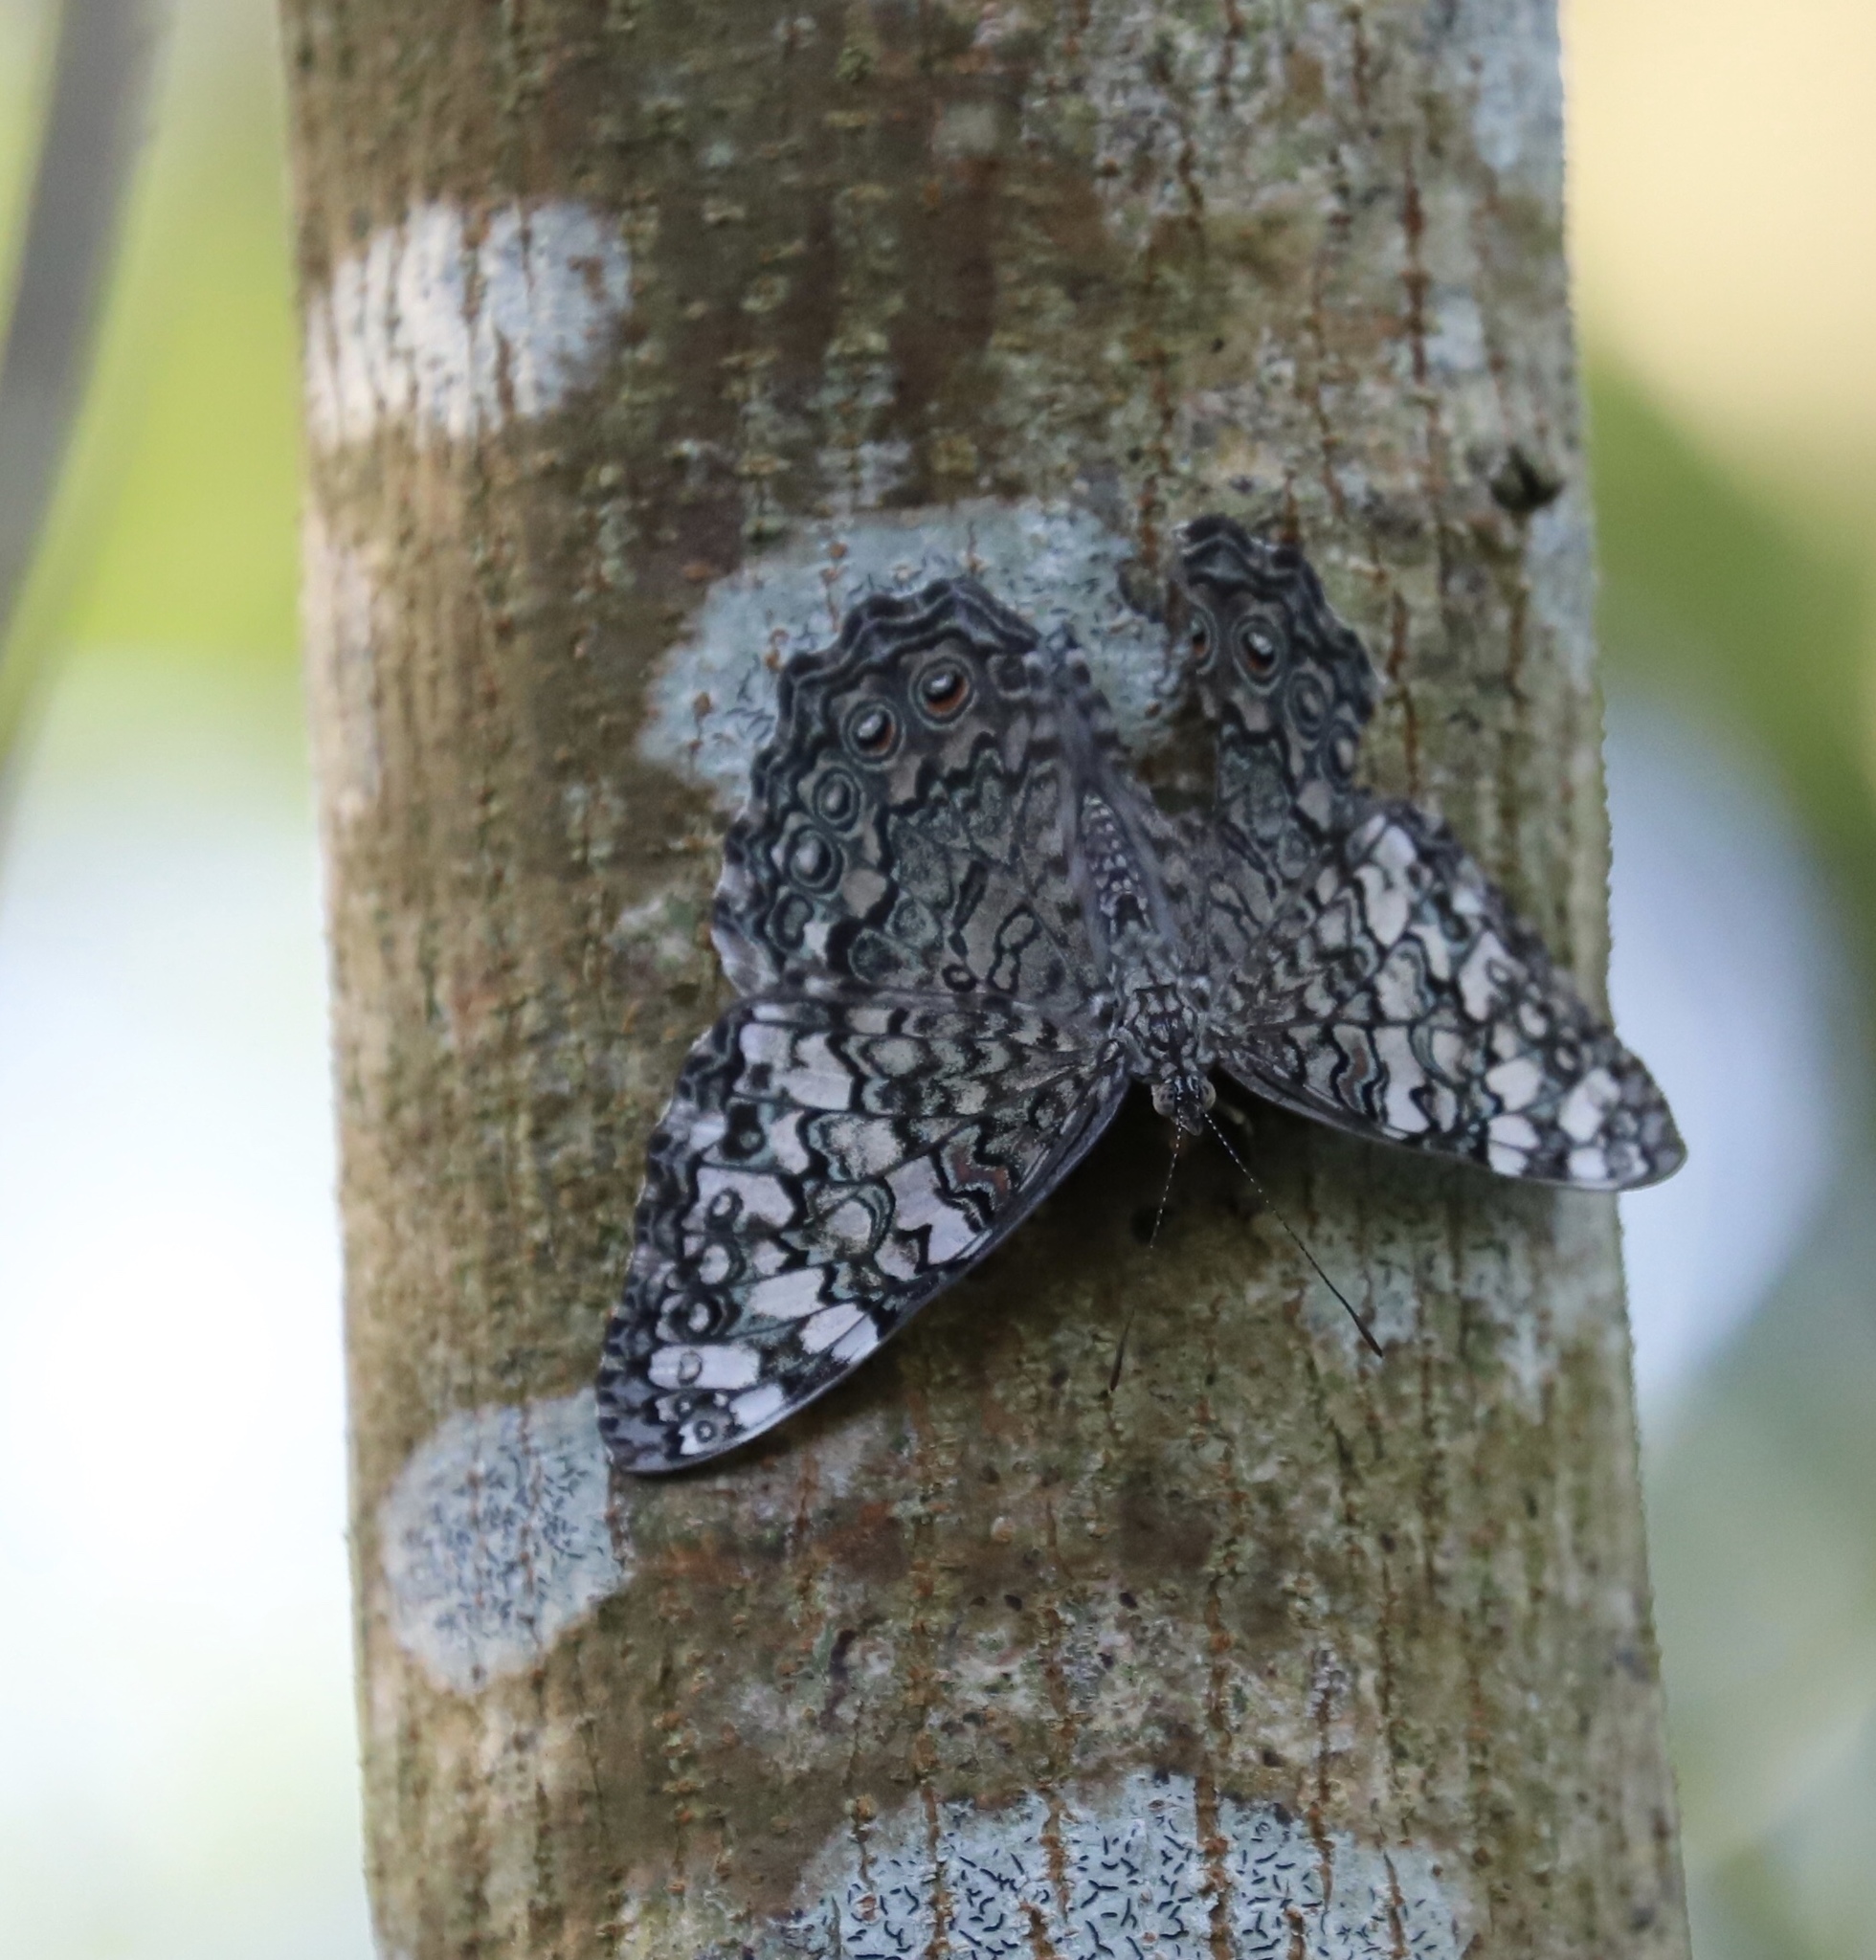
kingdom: Animalia
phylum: Arthropoda
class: Insecta
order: Lepidoptera
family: Nymphalidae
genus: Hamadryas
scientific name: Hamadryas februa
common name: Gray cracker
